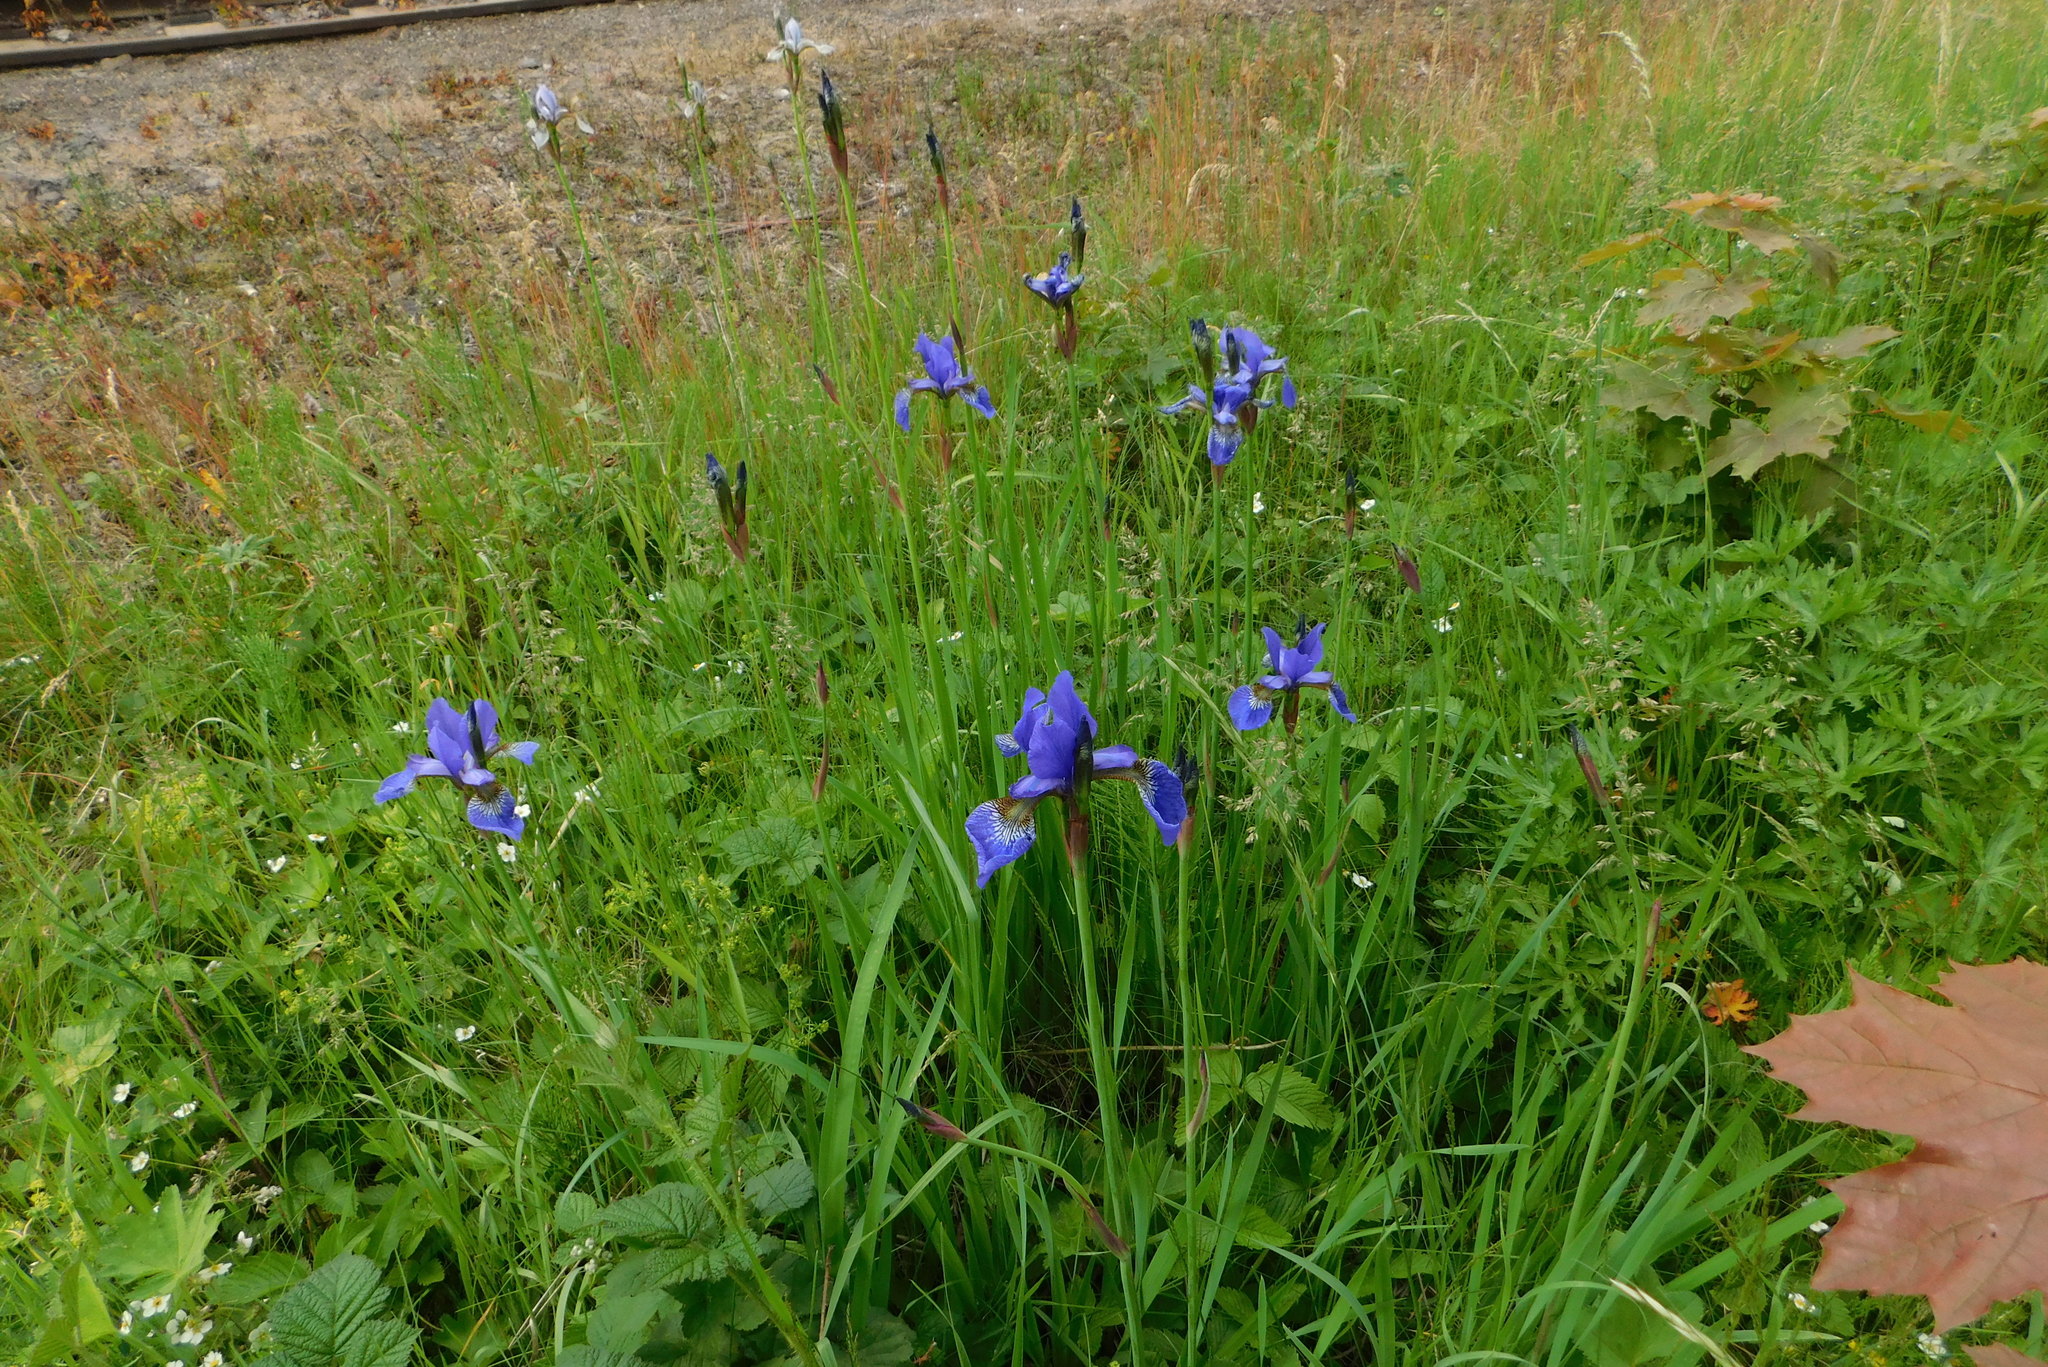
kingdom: Plantae
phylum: Tracheophyta
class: Liliopsida
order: Asparagales
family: Iridaceae
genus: Iris
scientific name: Iris sanguinea
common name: Blood iris
